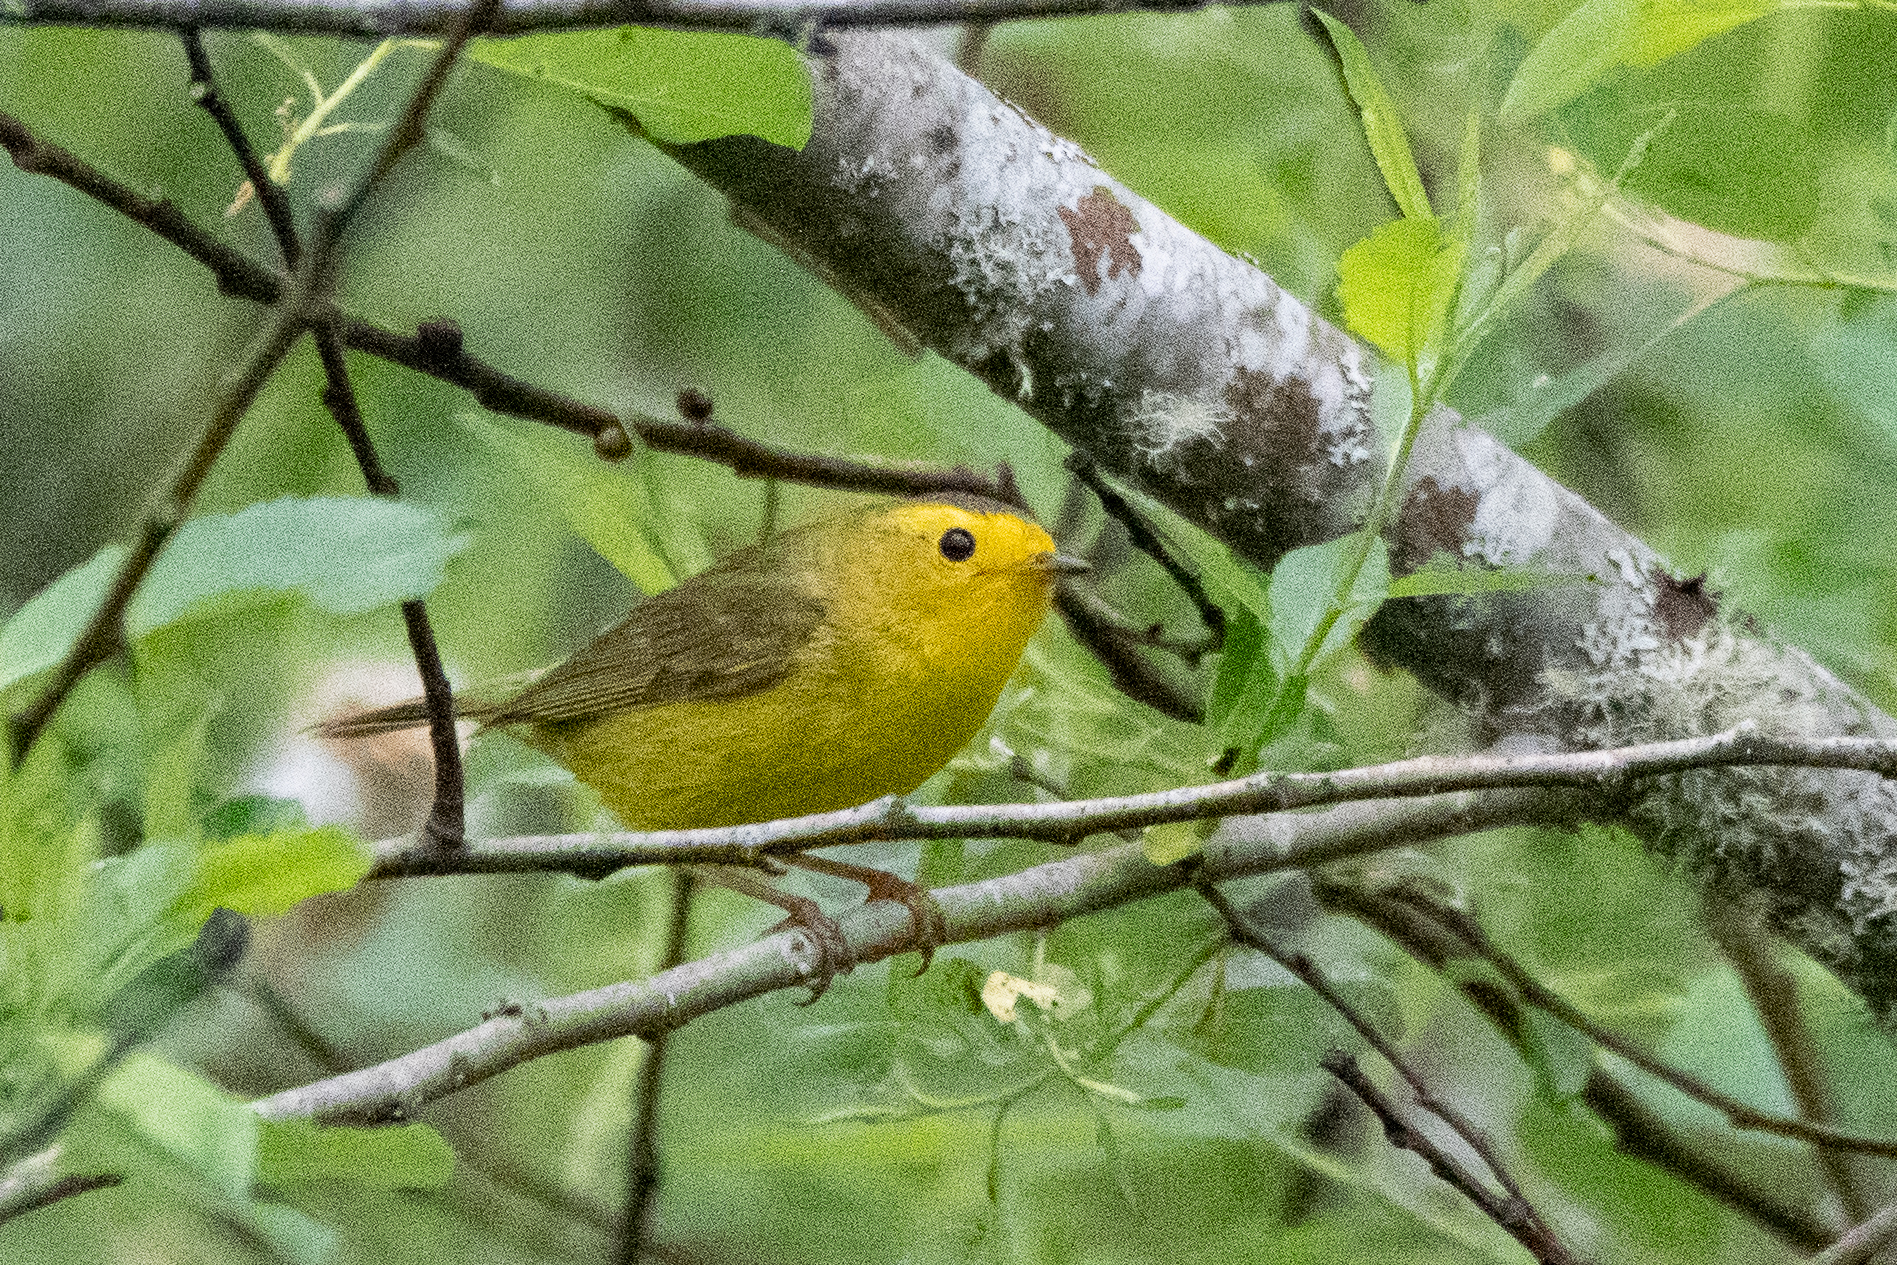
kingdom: Animalia
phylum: Chordata
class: Aves
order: Passeriformes
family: Parulidae
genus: Cardellina
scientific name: Cardellina pusilla
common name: Wilson's warbler
